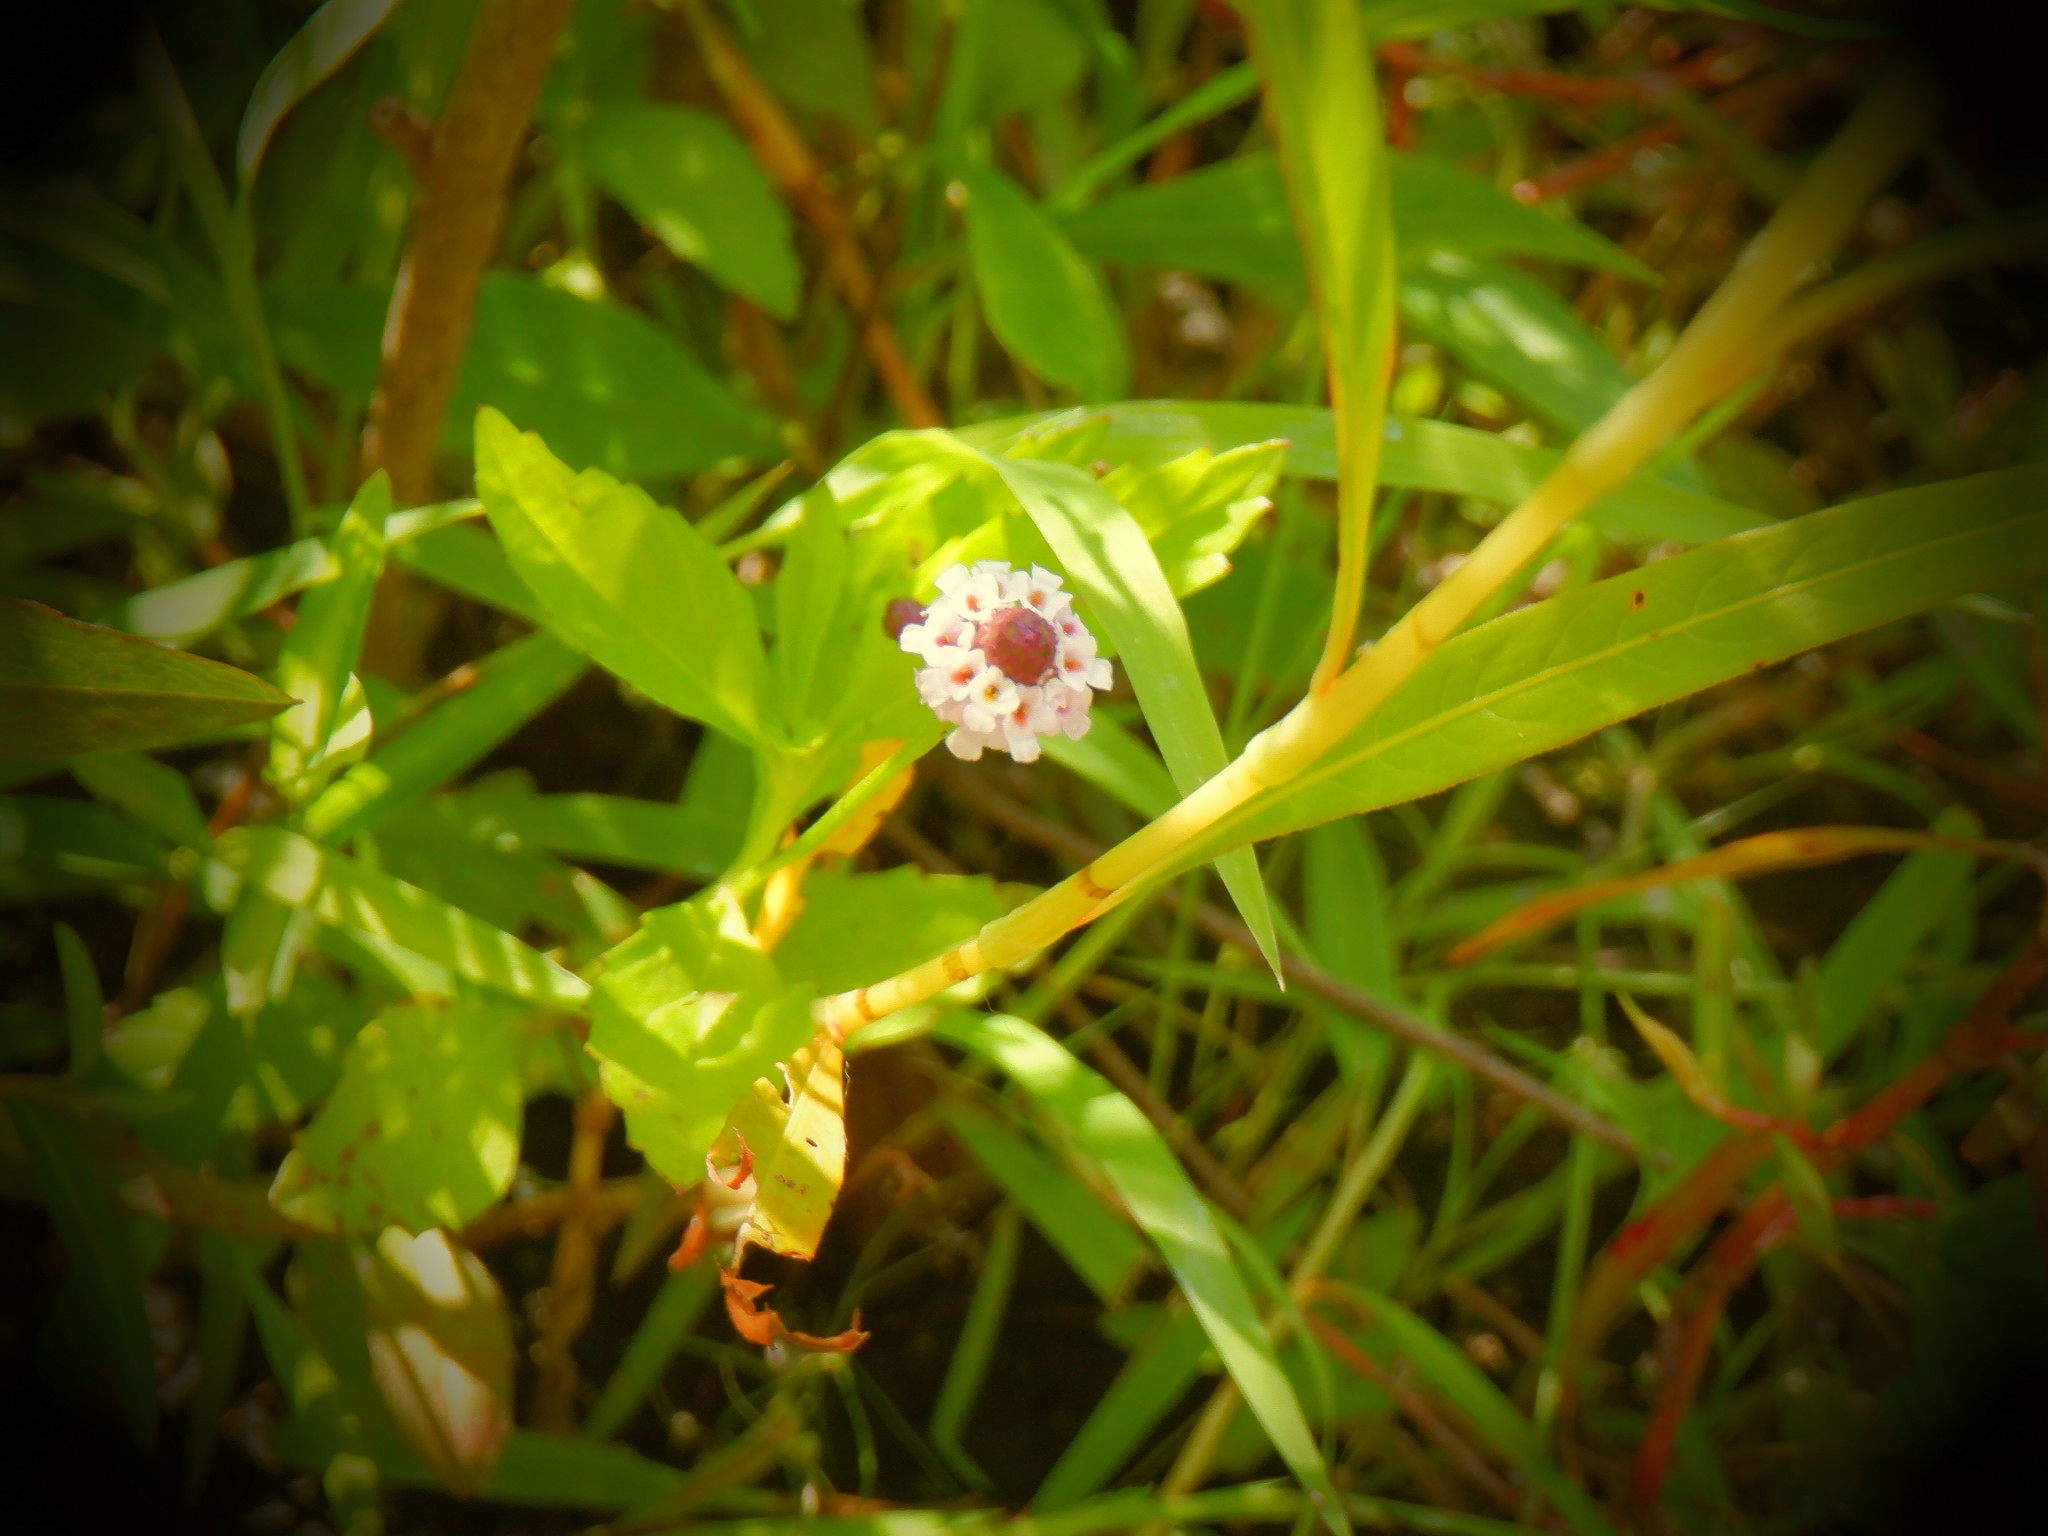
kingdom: Plantae
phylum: Tracheophyta
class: Magnoliopsida
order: Lamiales
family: Verbenaceae
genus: Phyla
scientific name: Phyla lanceolata
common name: Northern fogfruit
